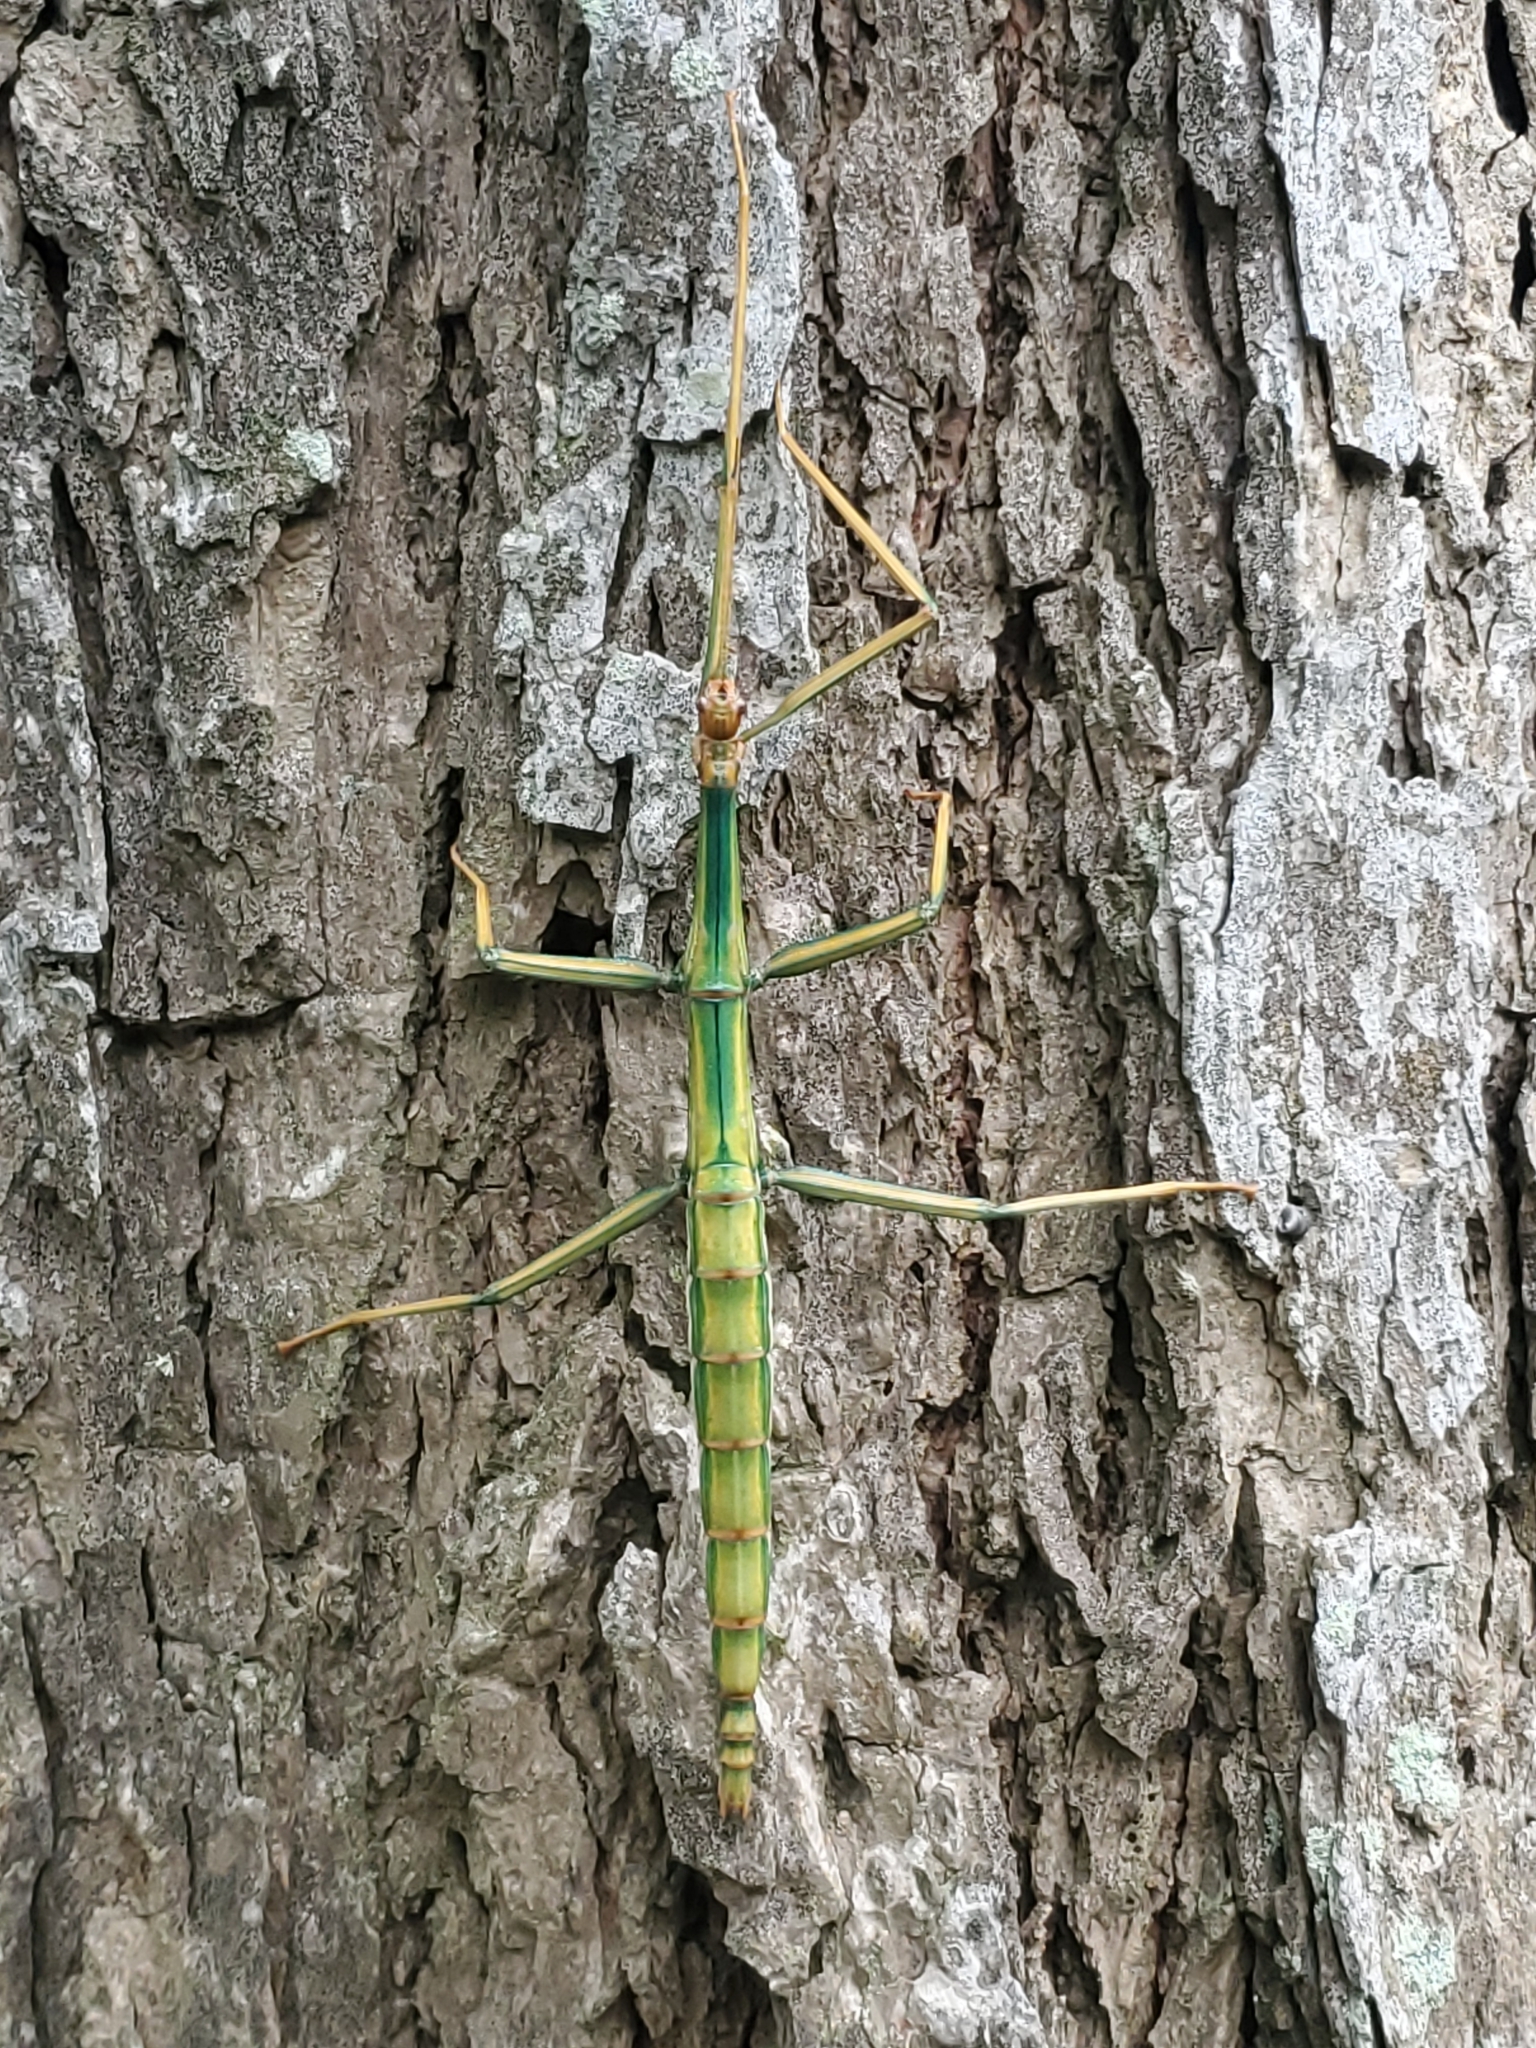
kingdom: Animalia
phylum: Arthropoda
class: Insecta
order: Phasmida
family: Diapheromeridae
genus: Megaphasma
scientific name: Megaphasma denticrus
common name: Giant walkingstick
